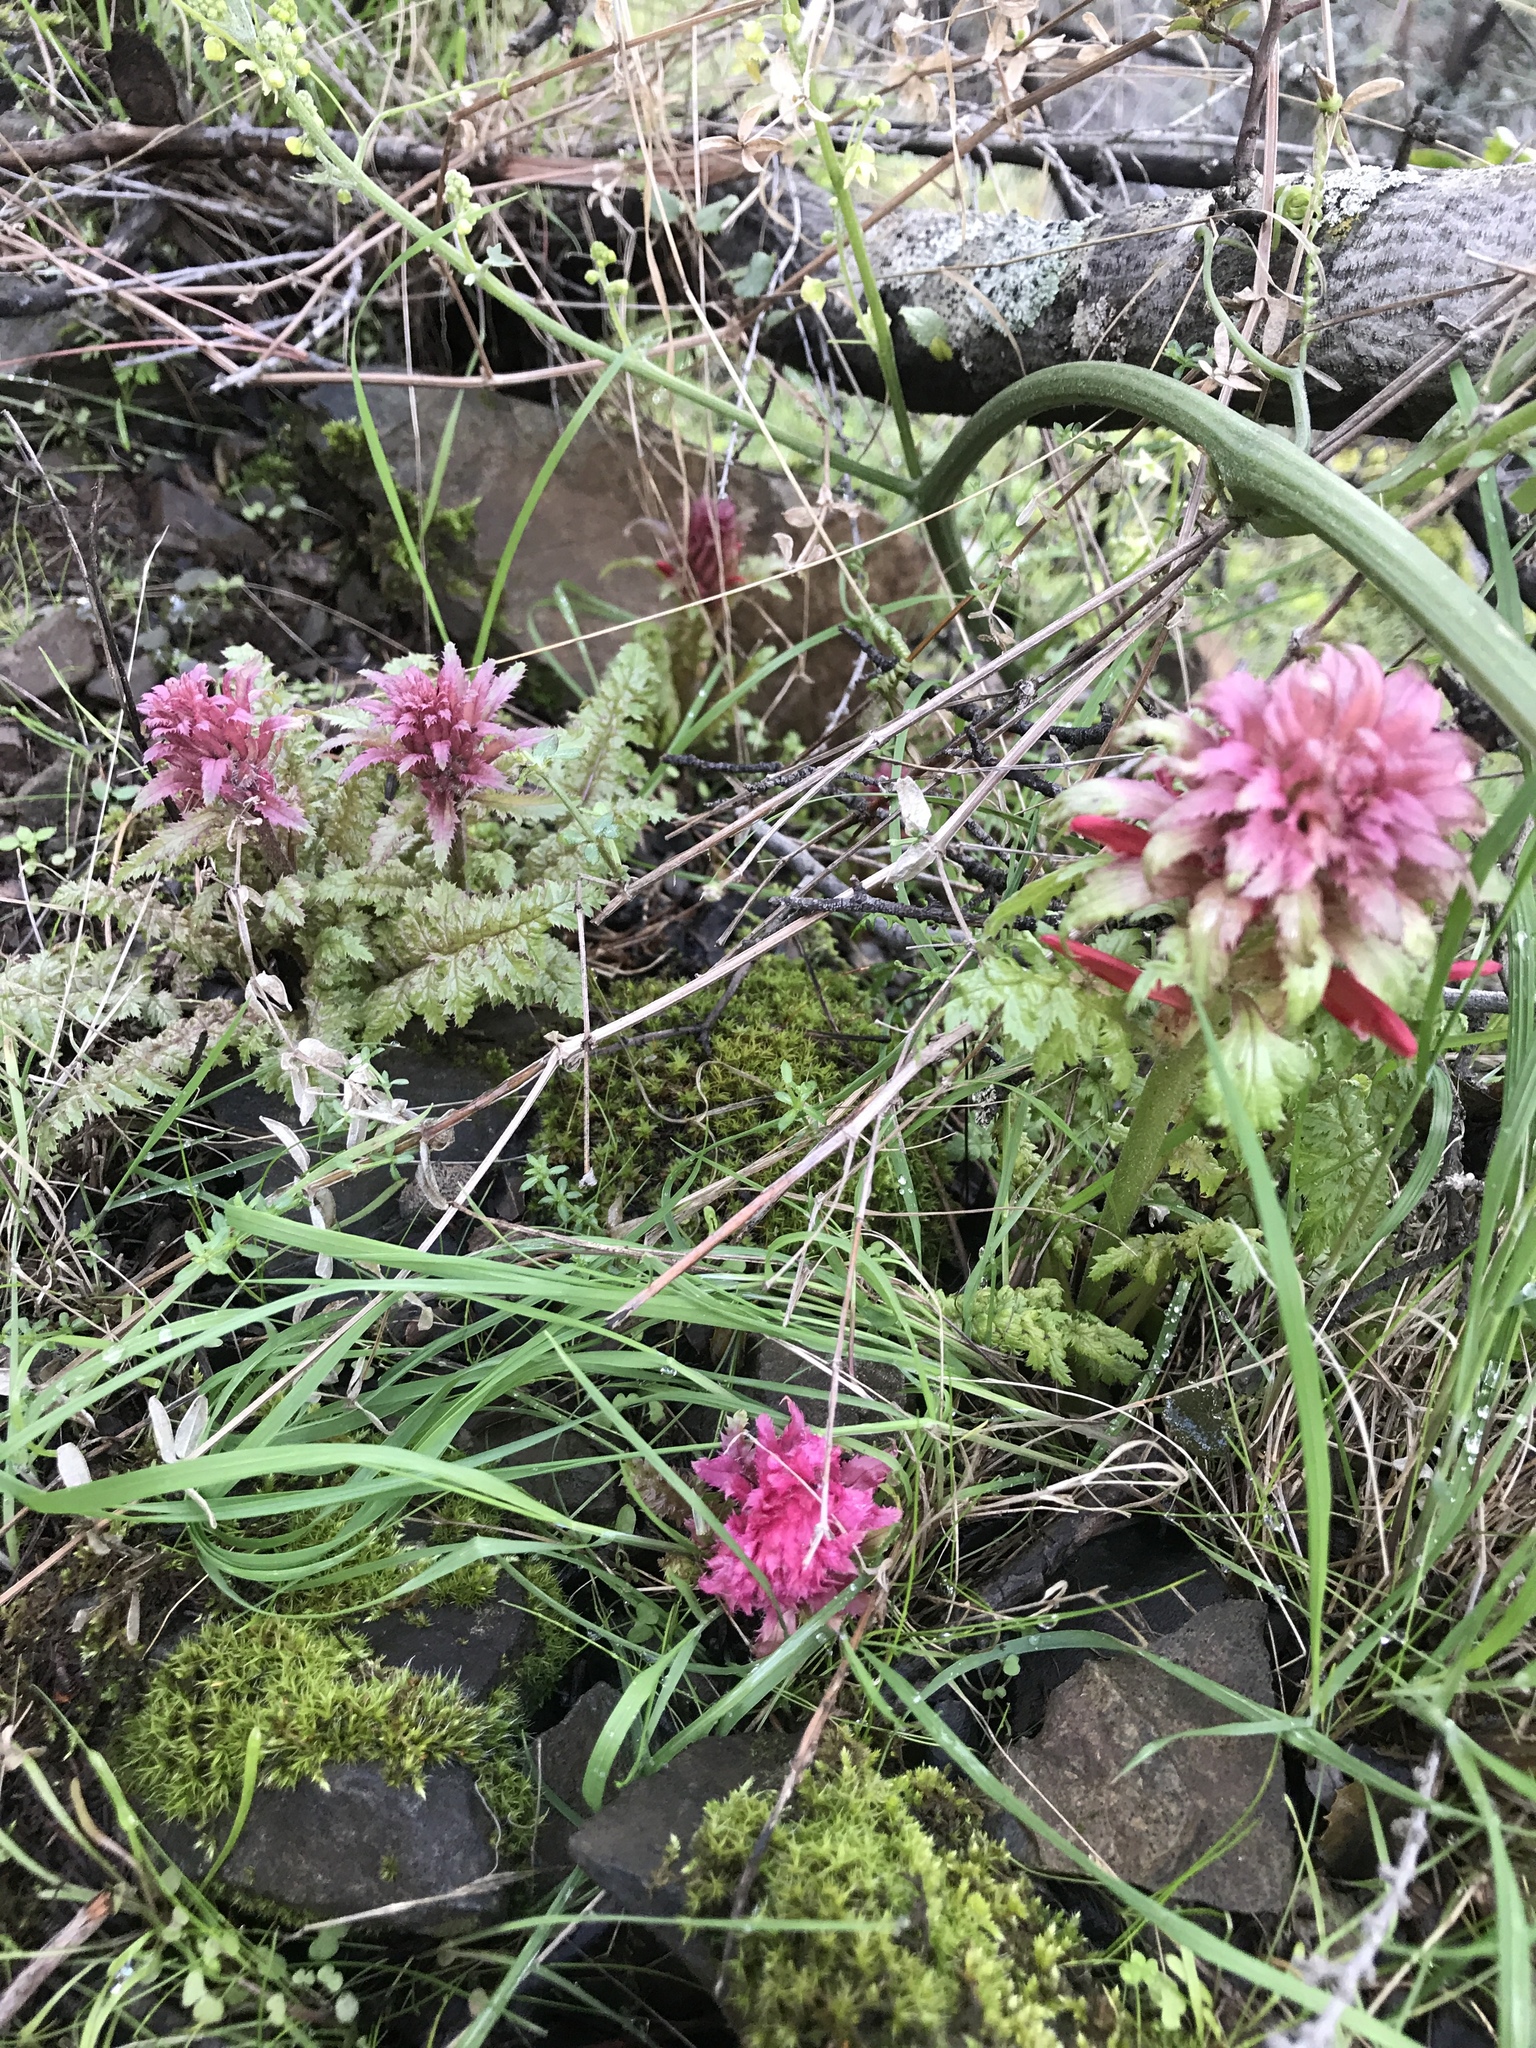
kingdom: Plantae
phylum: Tracheophyta
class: Magnoliopsida
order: Lamiales
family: Orobanchaceae
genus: Pedicularis
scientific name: Pedicularis densiflora
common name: Indian warrior
